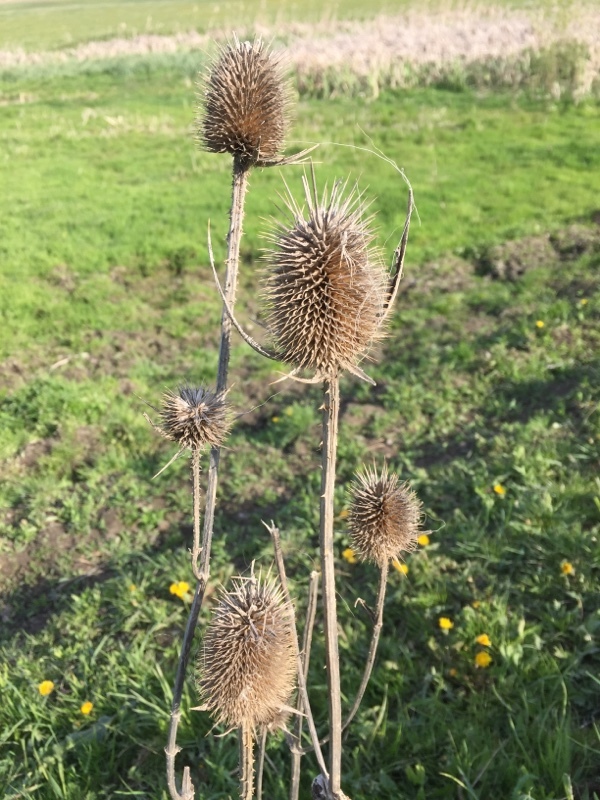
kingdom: Plantae
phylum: Tracheophyta
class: Magnoliopsida
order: Dipsacales
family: Caprifoliaceae
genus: Dipsacus
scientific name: Dipsacus fullonum
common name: Teasel
